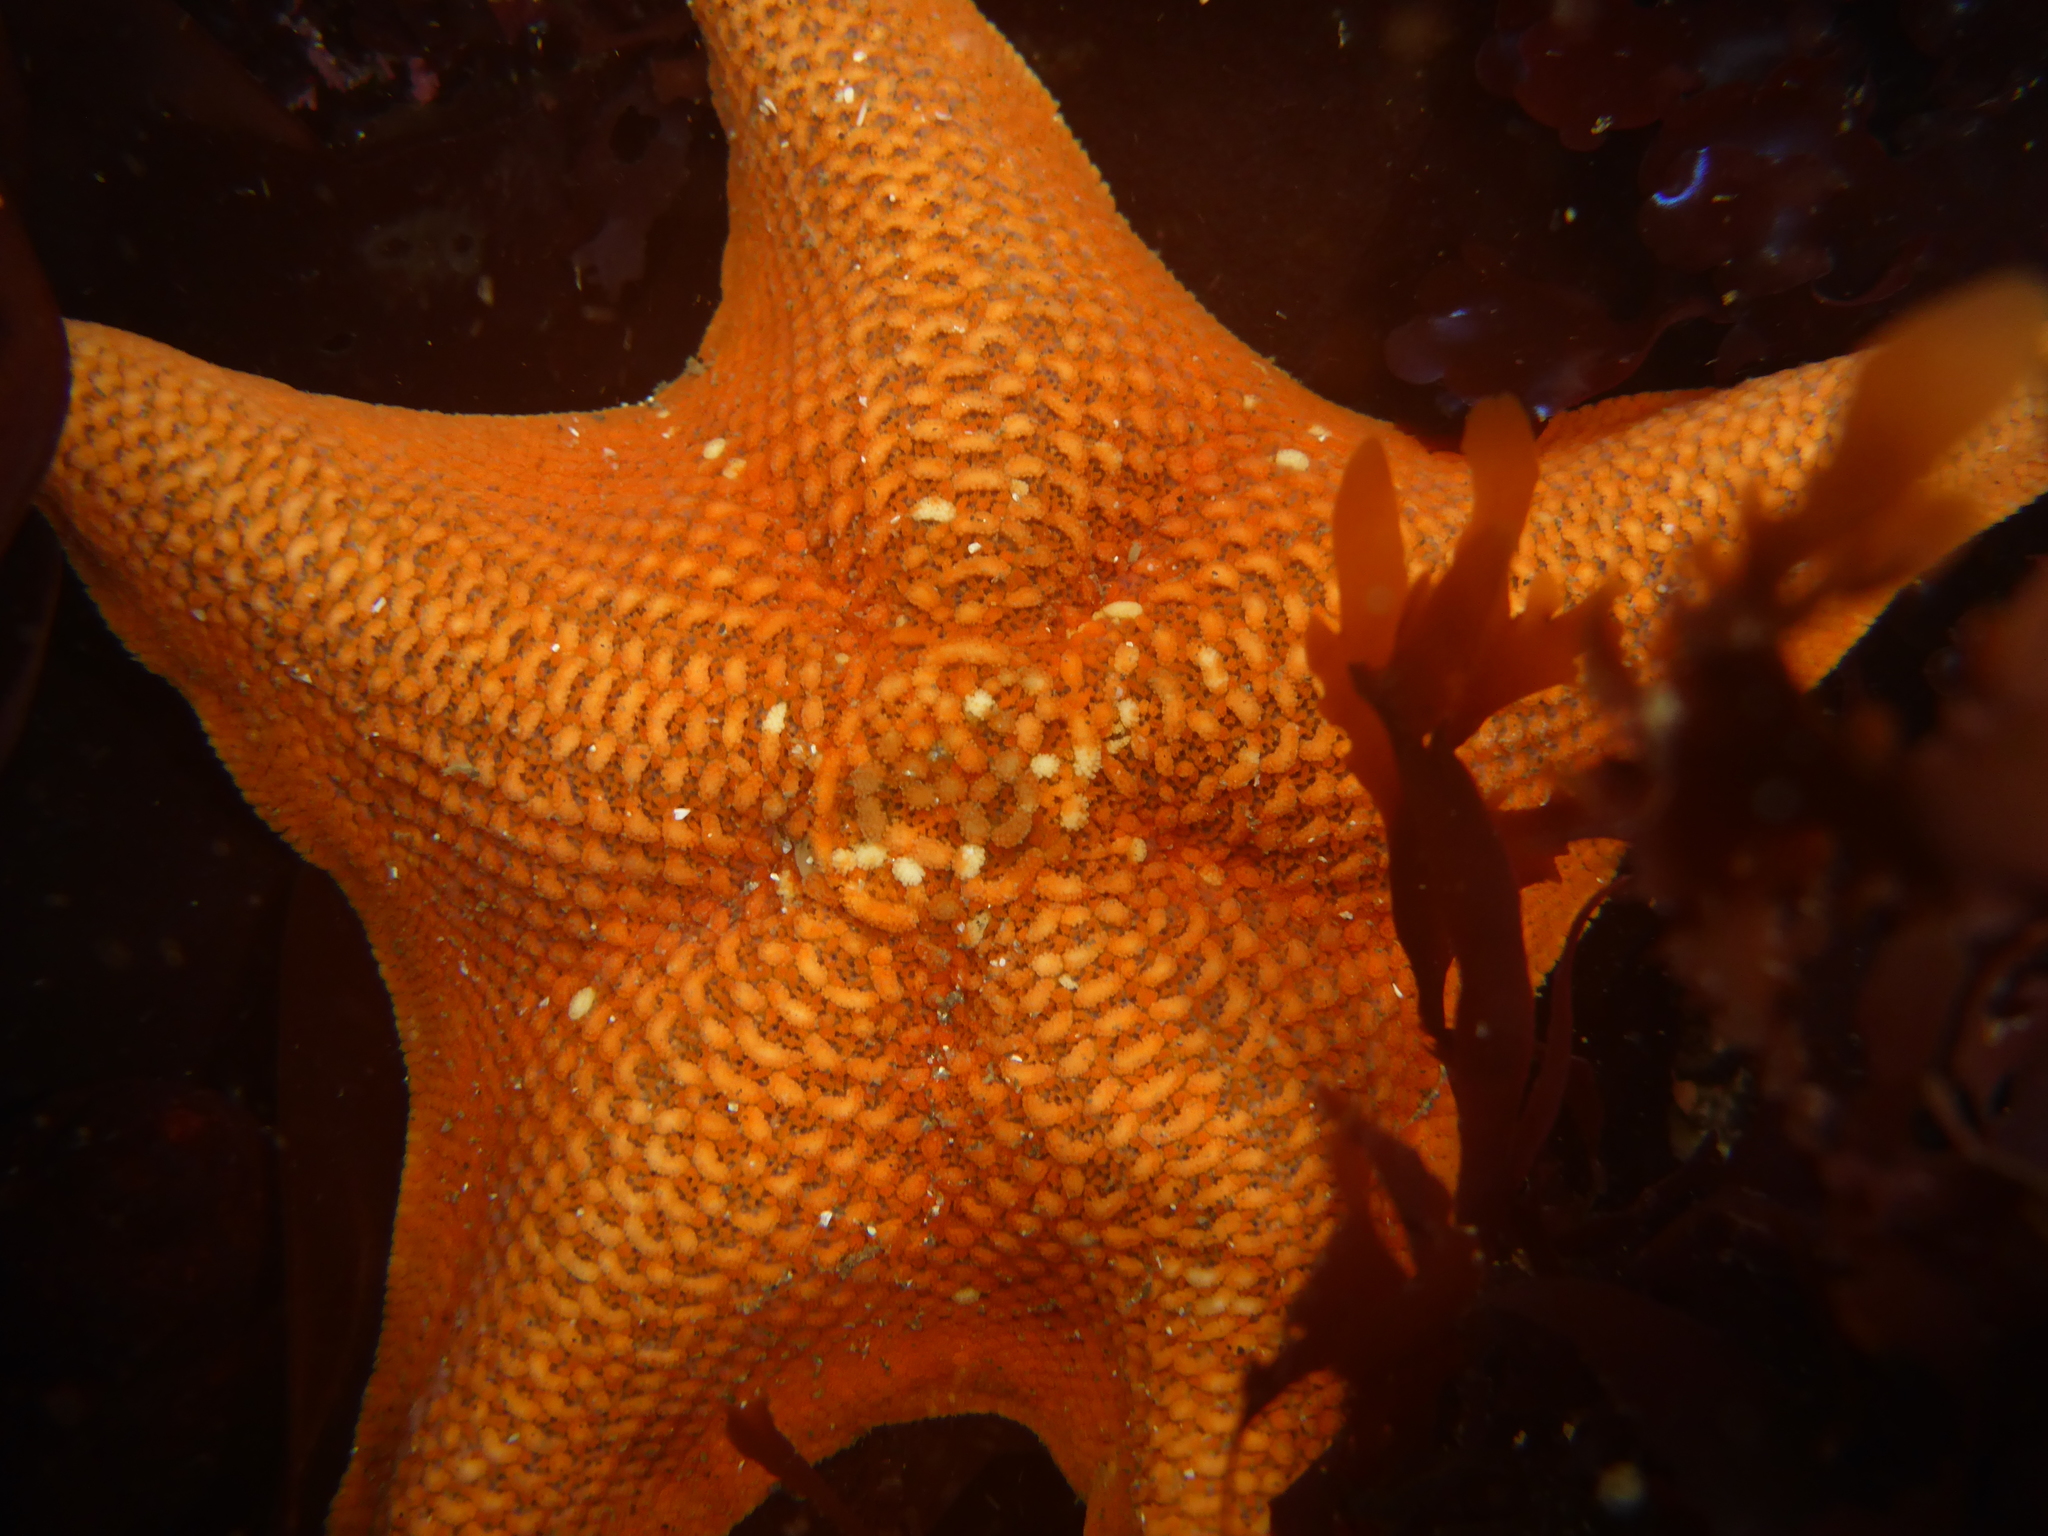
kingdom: Animalia
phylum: Echinodermata
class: Asteroidea
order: Valvatida
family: Asterinidae
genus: Patiria
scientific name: Patiria miniata
